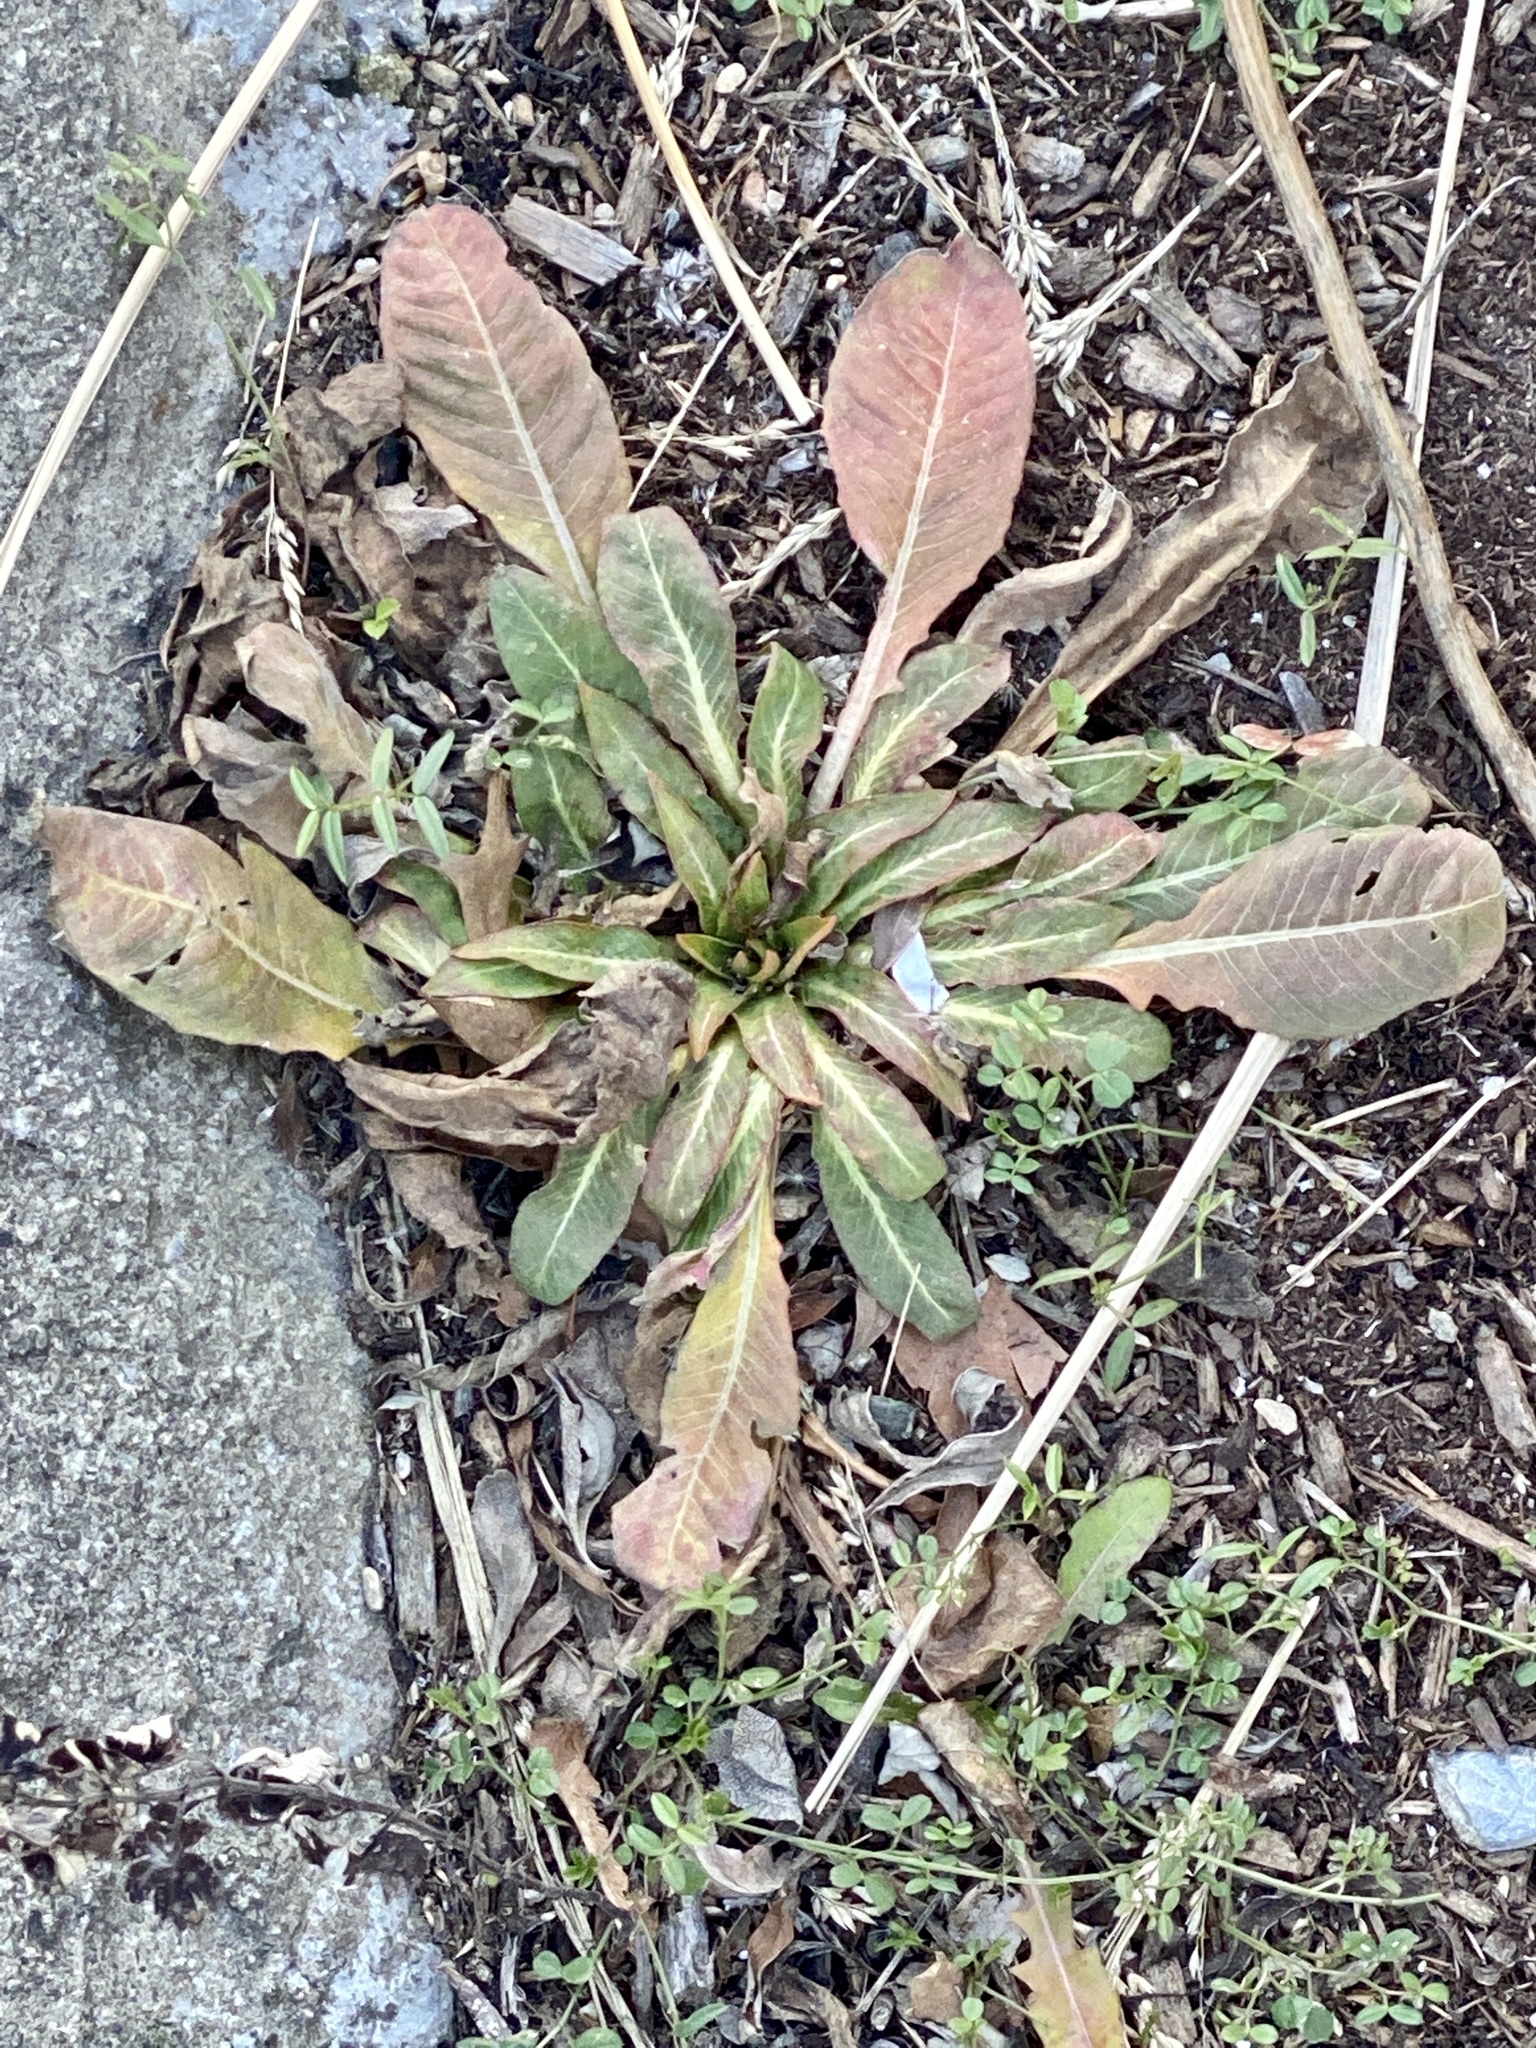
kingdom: Plantae
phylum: Tracheophyta
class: Magnoliopsida
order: Myrtales
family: Onagraceae
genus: Oenothera
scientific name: Oenothera biennis
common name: Common evening-primrose
